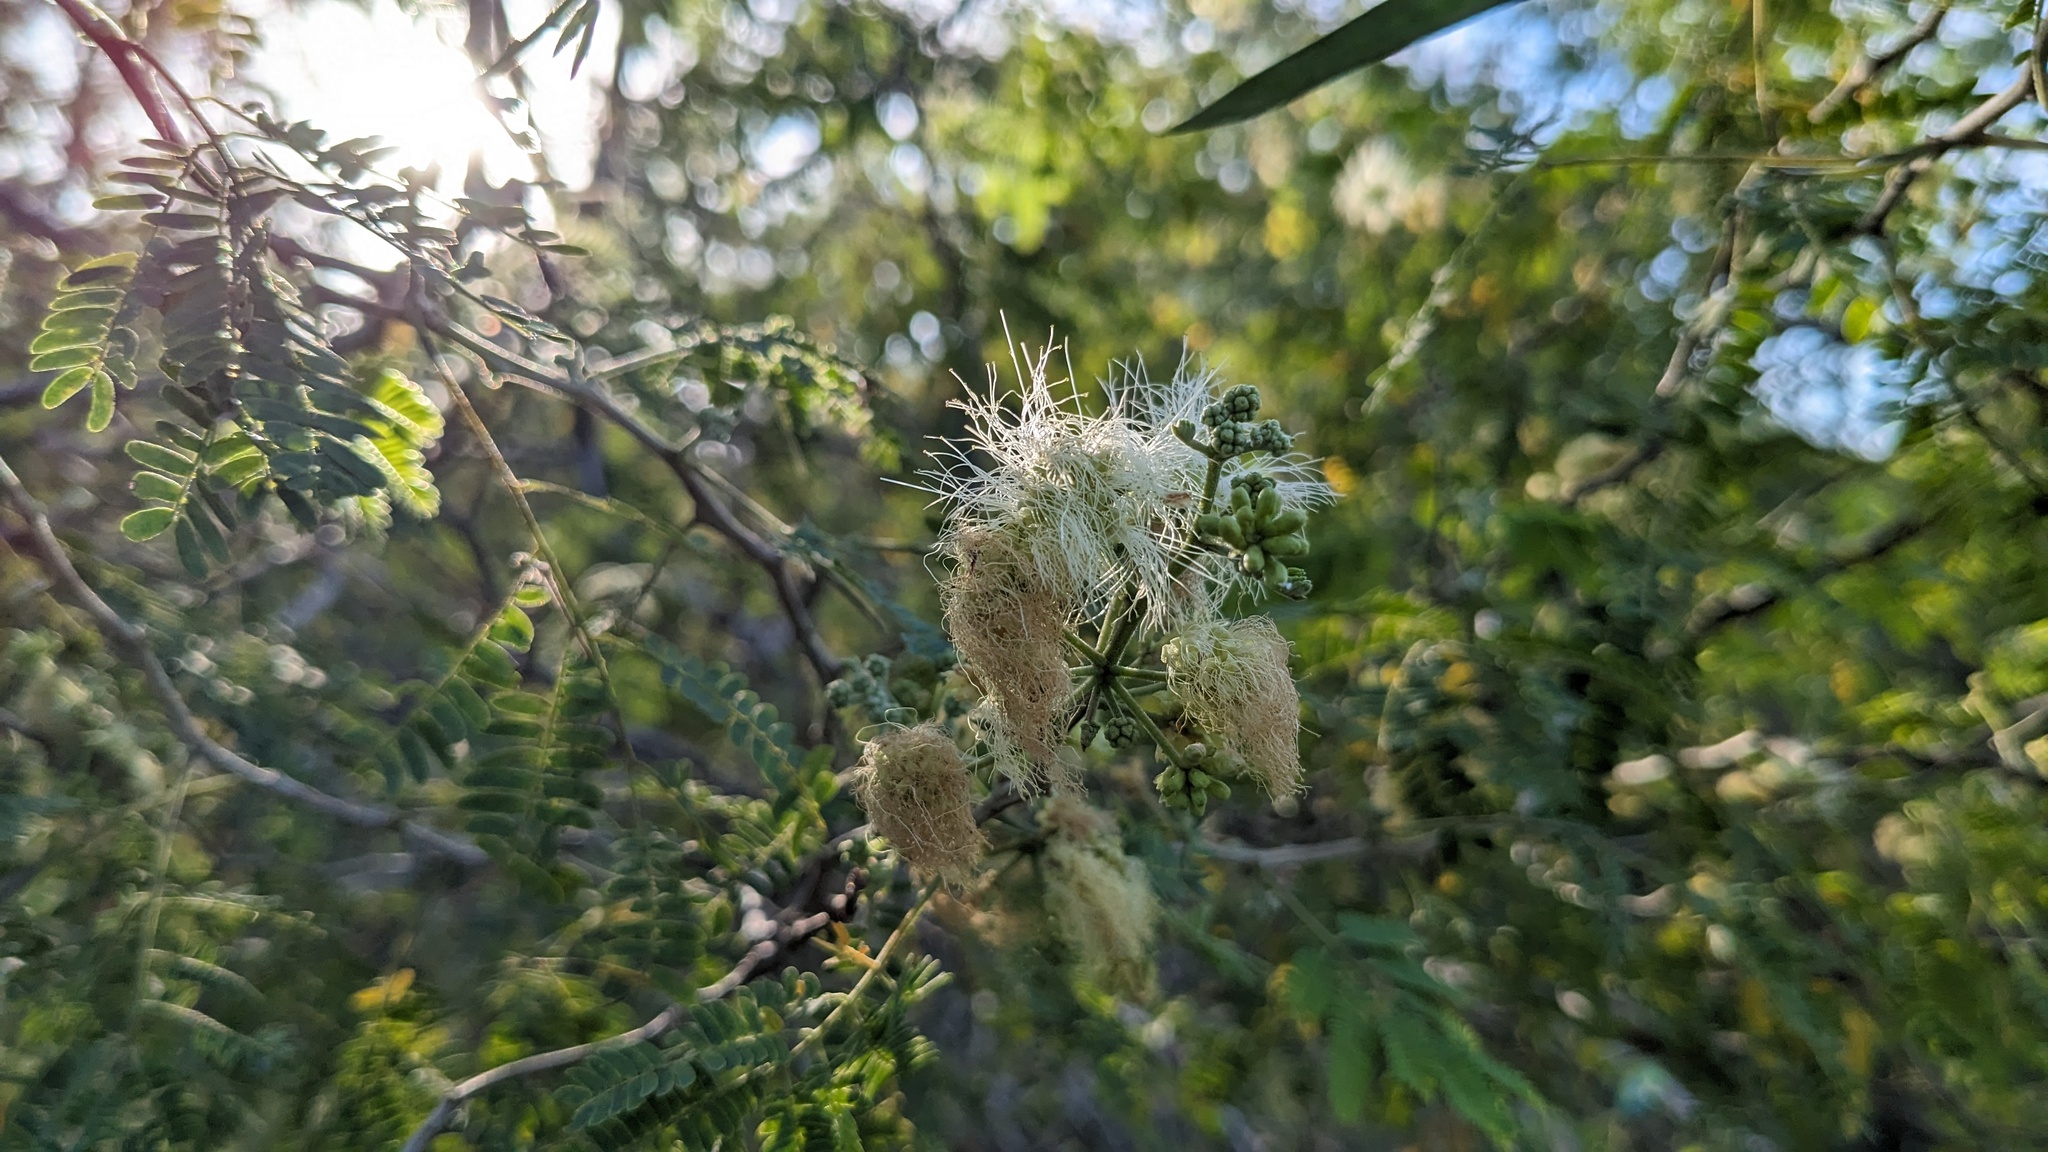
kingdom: Plantae
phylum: Tracheophyta
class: Magnoliopsida
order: Fabales
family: Fabaceae
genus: Havardia
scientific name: Havardia pallens
